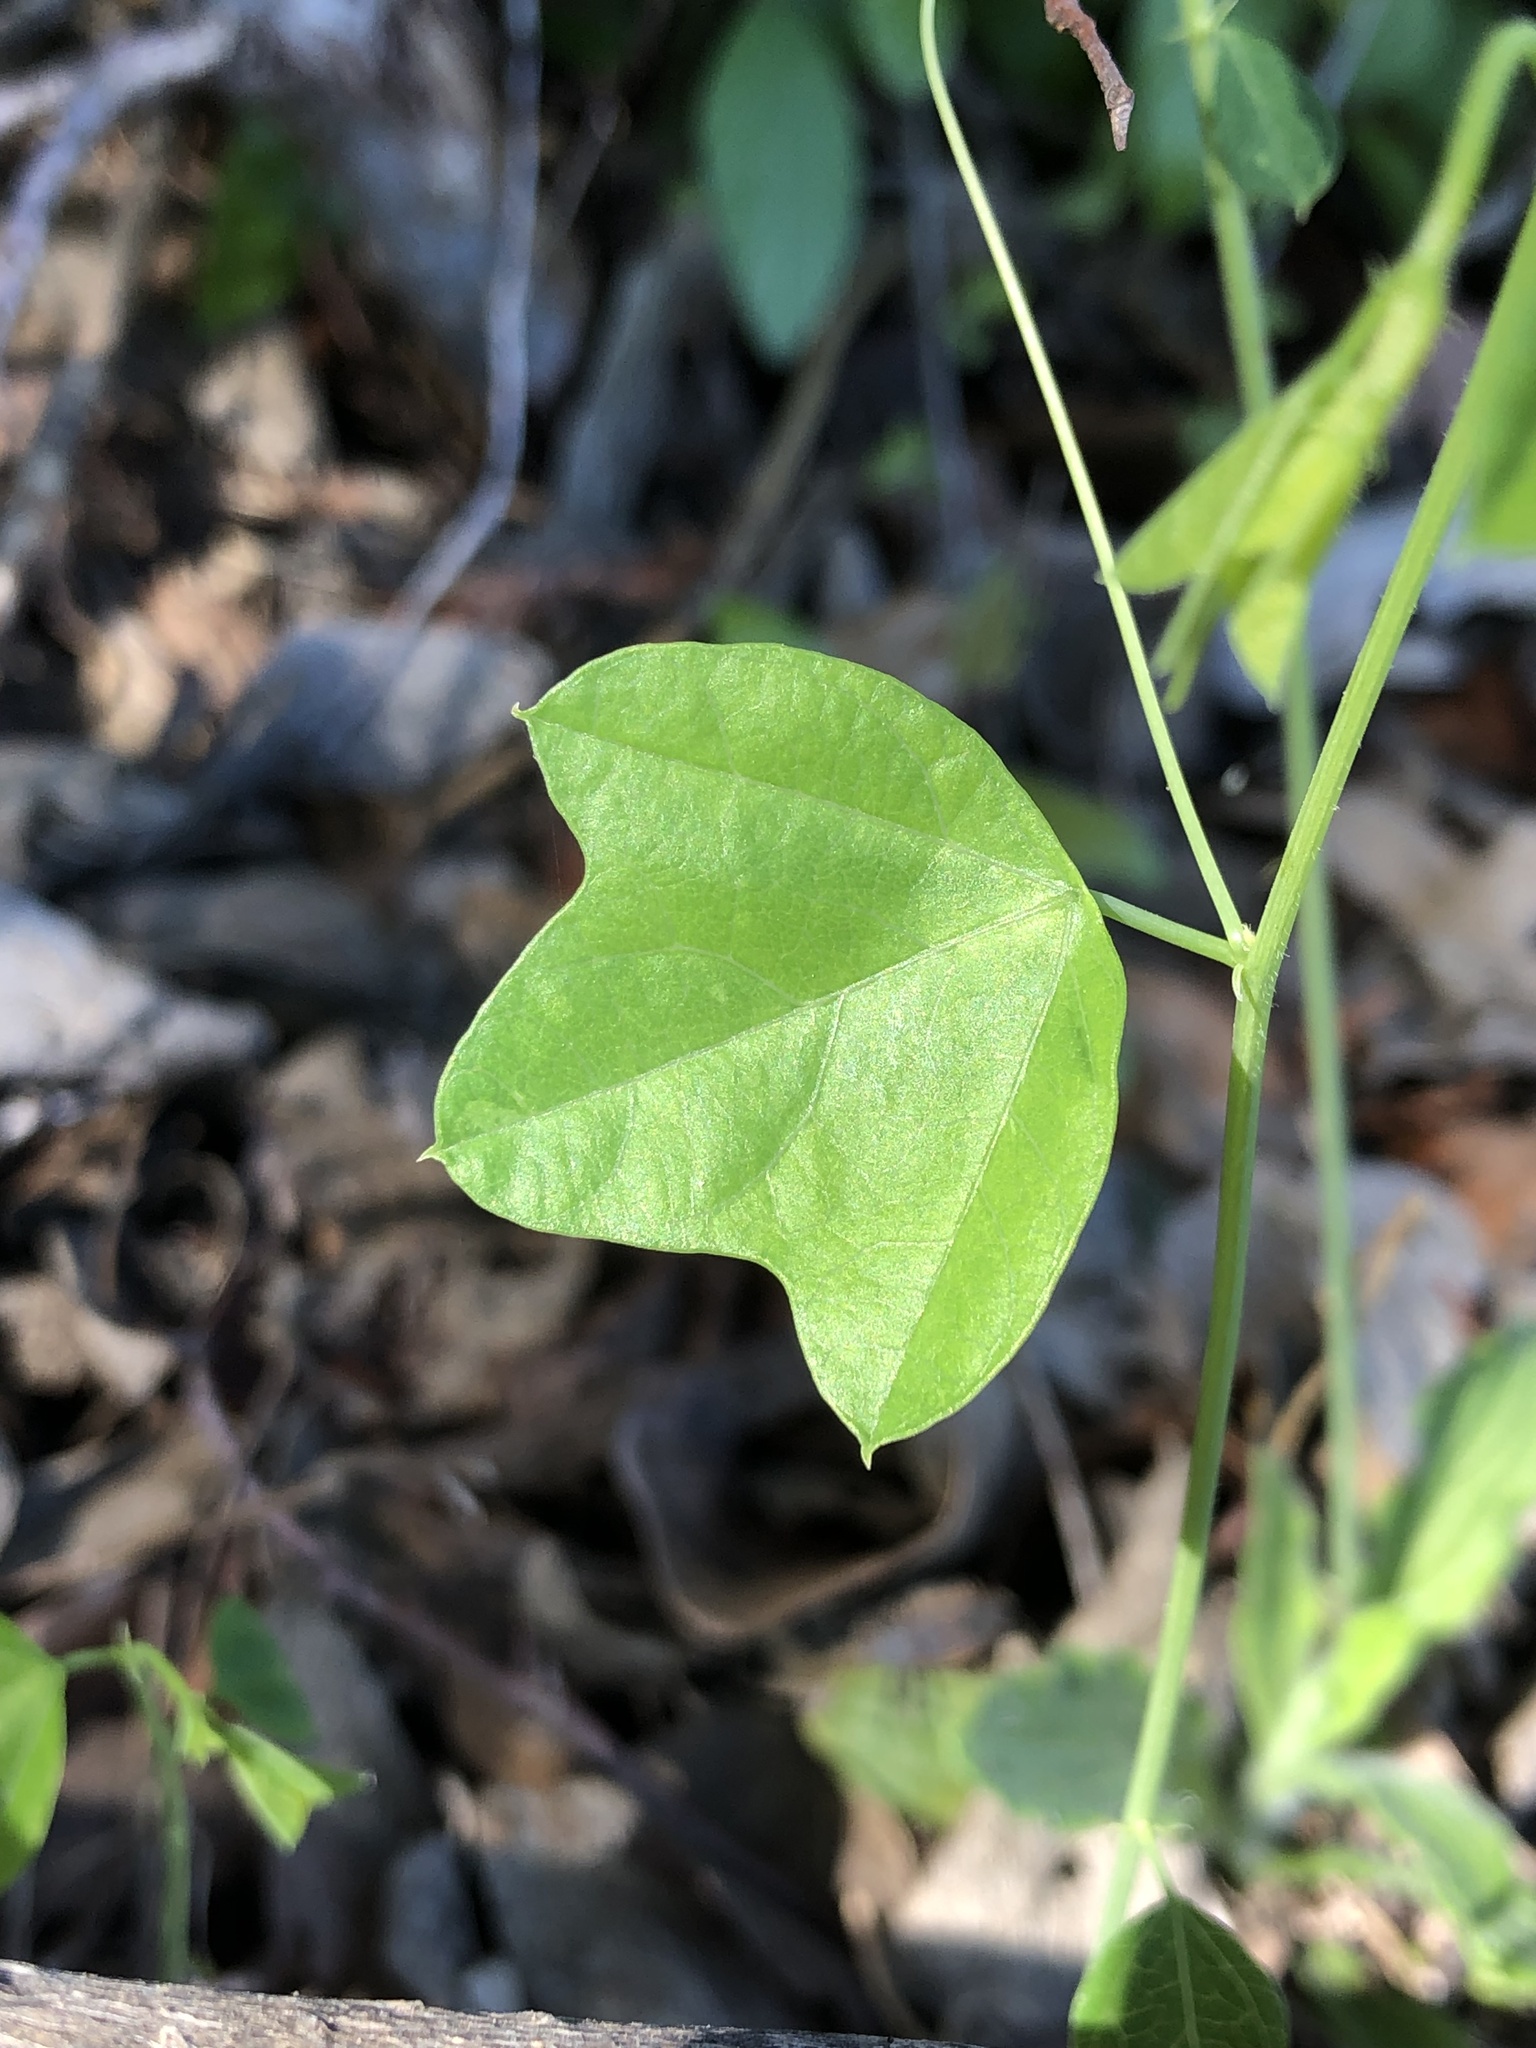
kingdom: Plantae
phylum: Tracheophyta
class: Magnoliopsida
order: Malpighiales
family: Passifloraceae
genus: Passiflora
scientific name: Passiflora lutea
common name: Yellow passionflower
